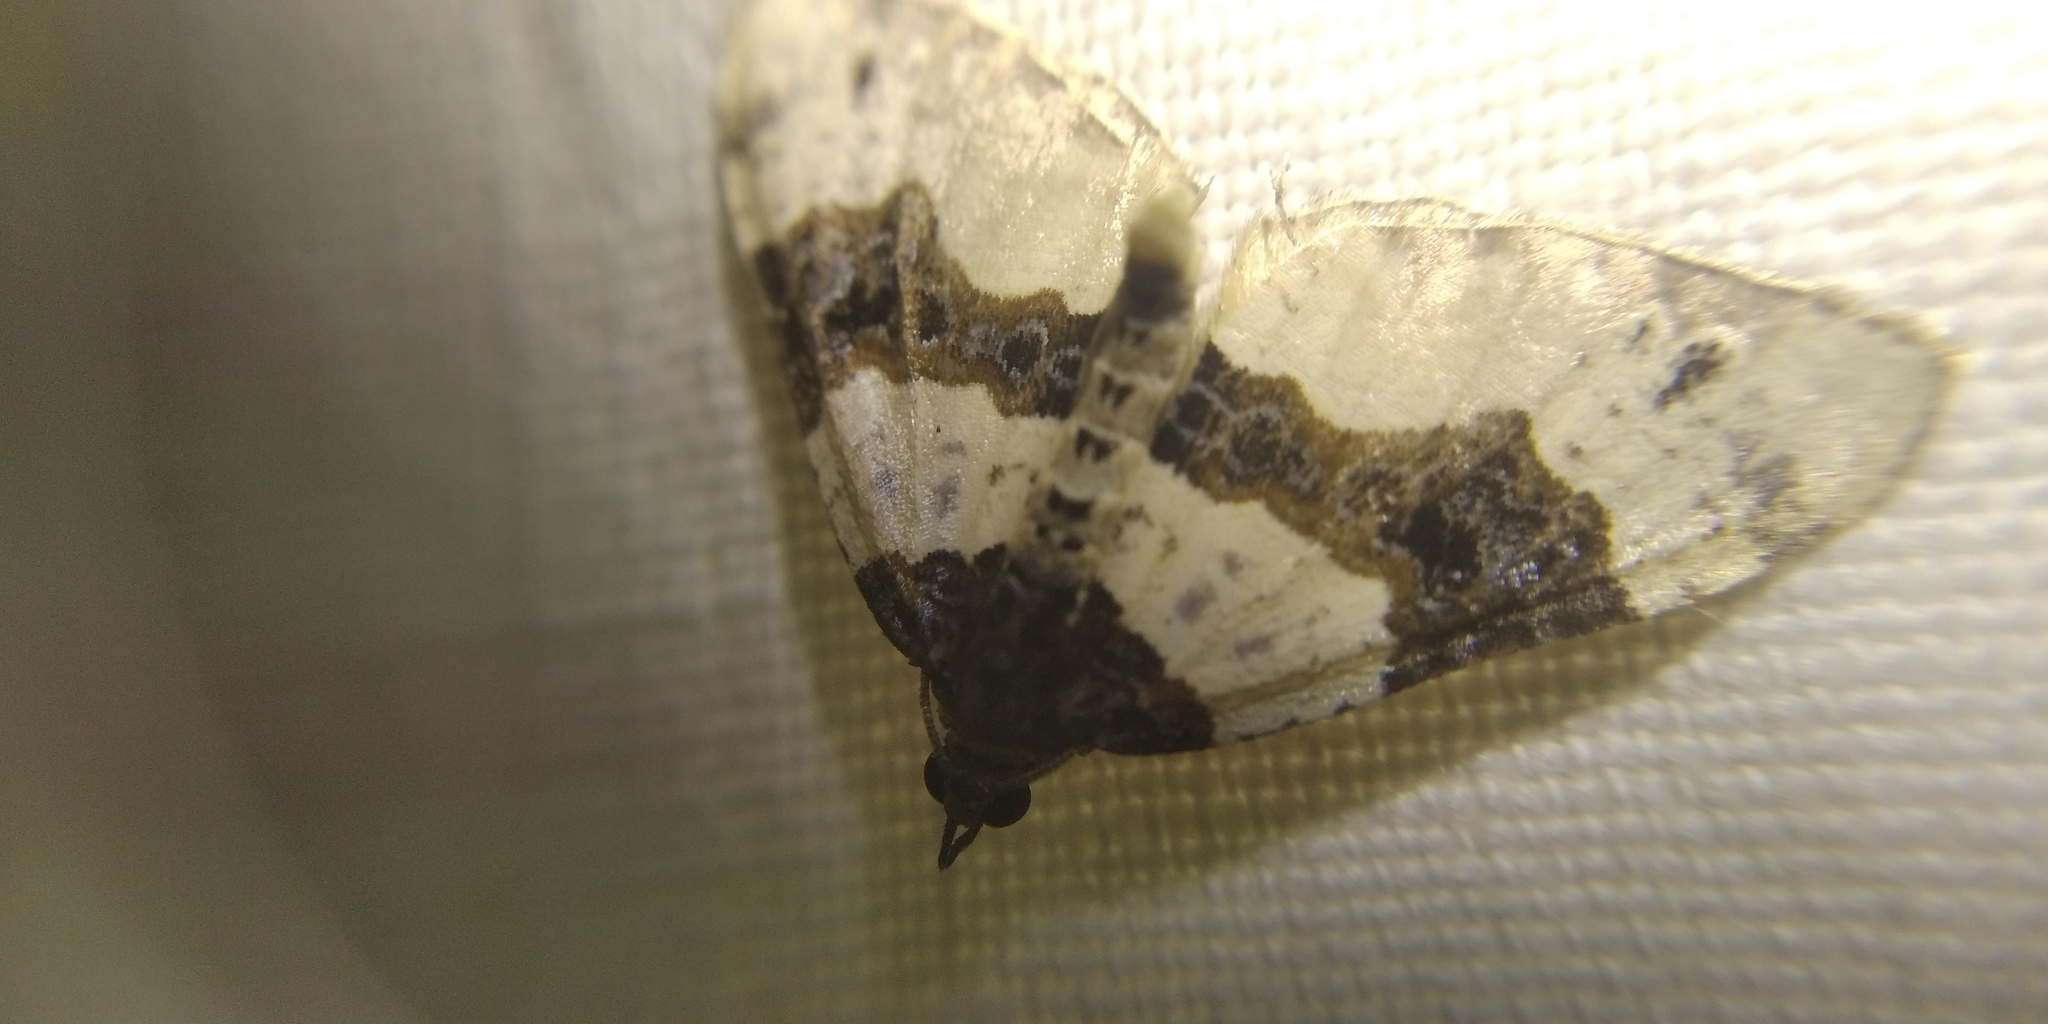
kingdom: Animalia
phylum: Arthropoda
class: Insecta
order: Lepidoptera
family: Geometridae
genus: Cosmorhoe
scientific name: Cosmorhoe ocellata
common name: Purple bar
